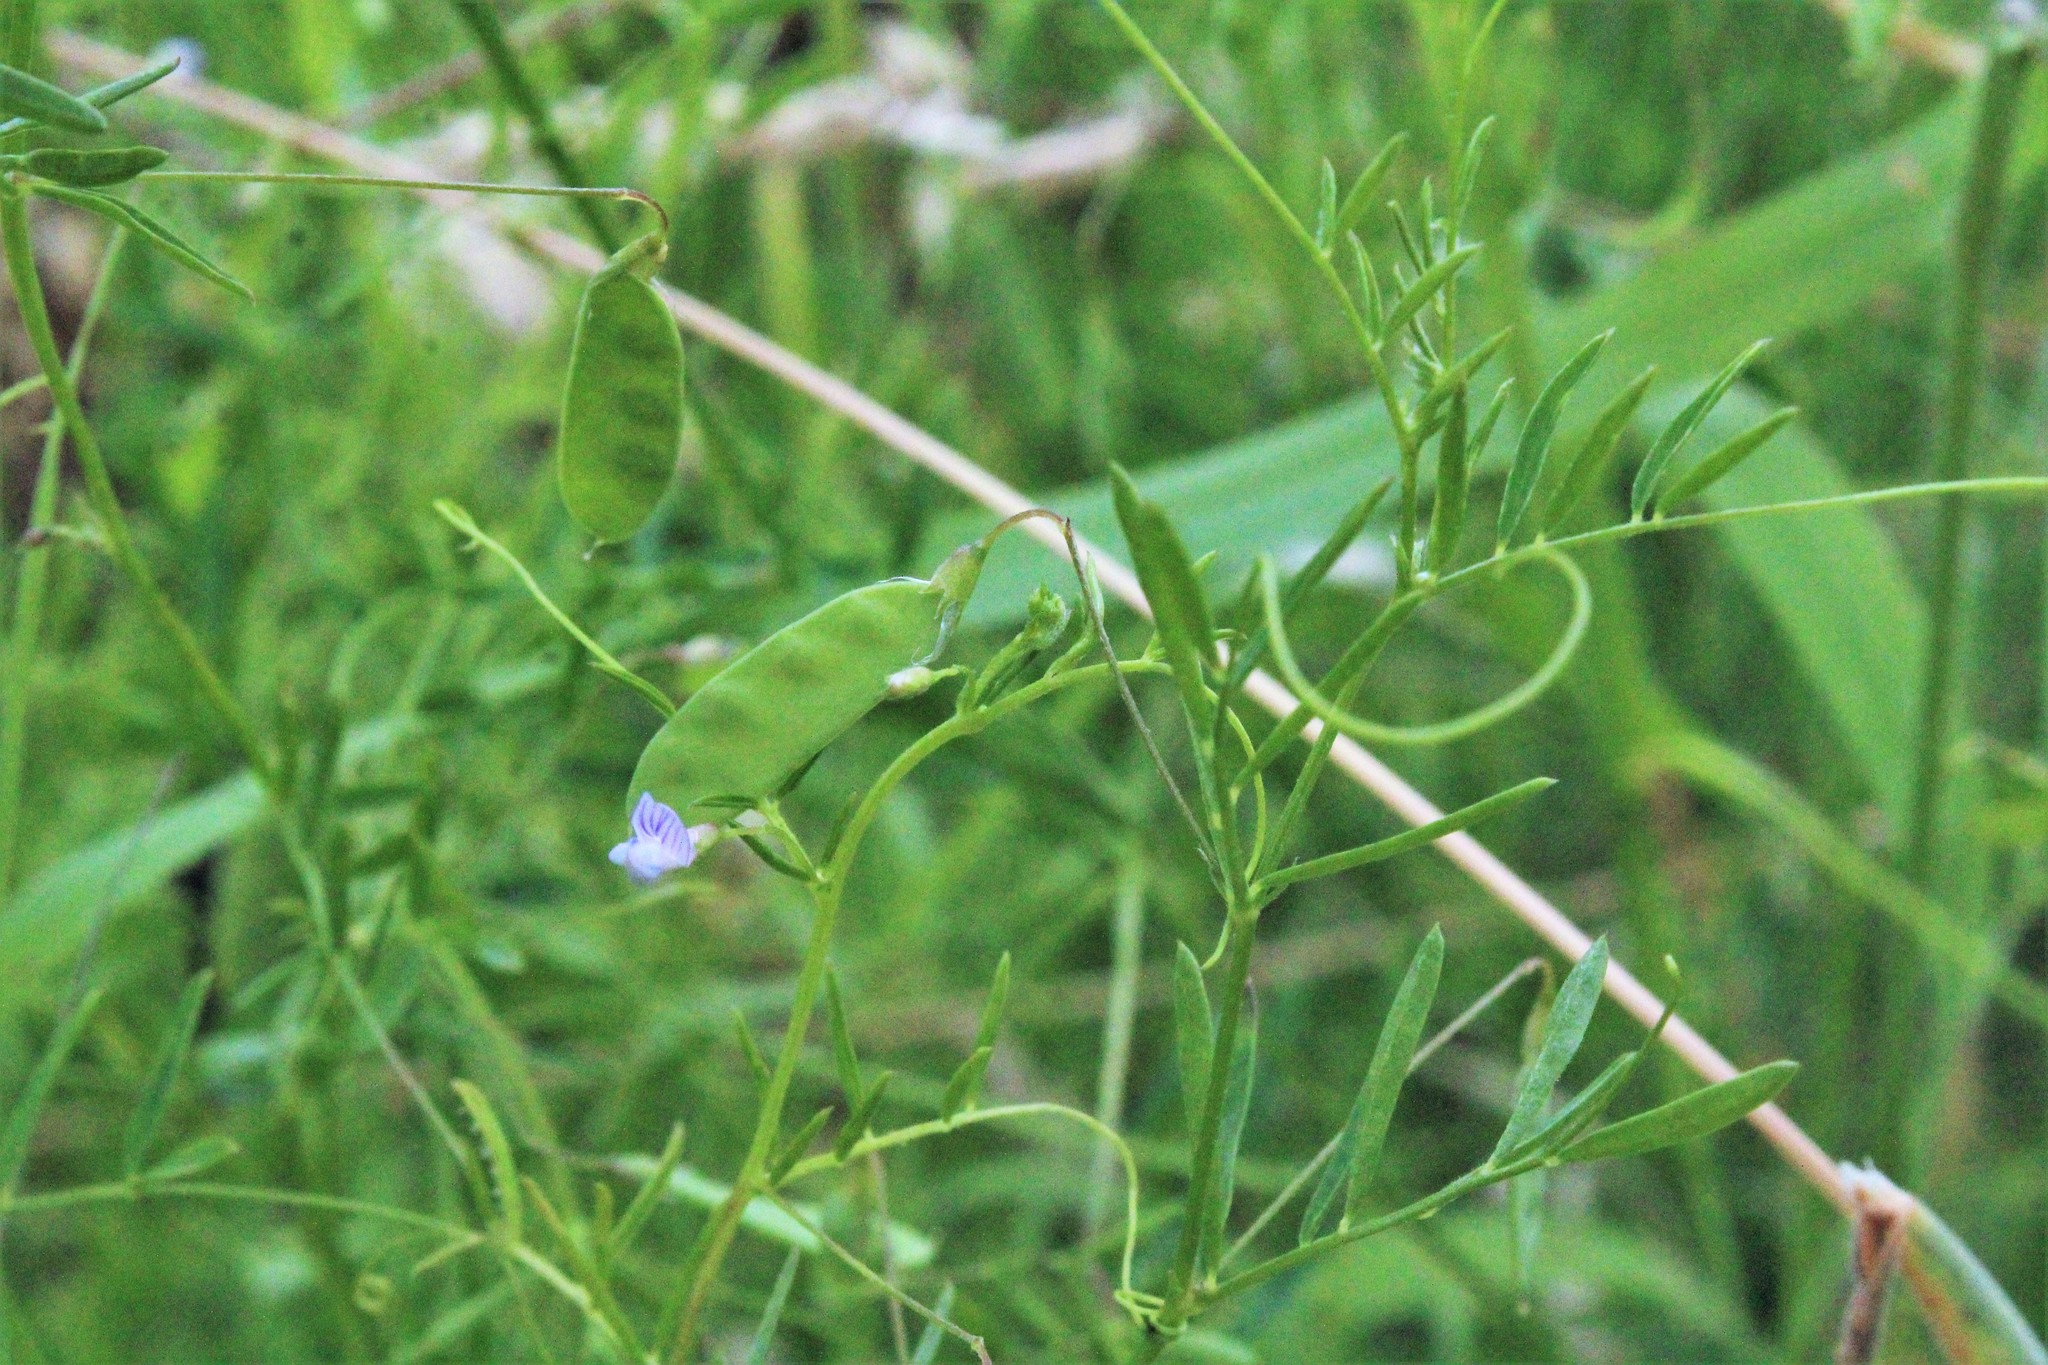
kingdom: Plantae
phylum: Tracheophyta
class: Magnoliopsida
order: Fabales
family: Fabaceae
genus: Vicia
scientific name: Vicia tetrasperma
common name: Smooth tare
